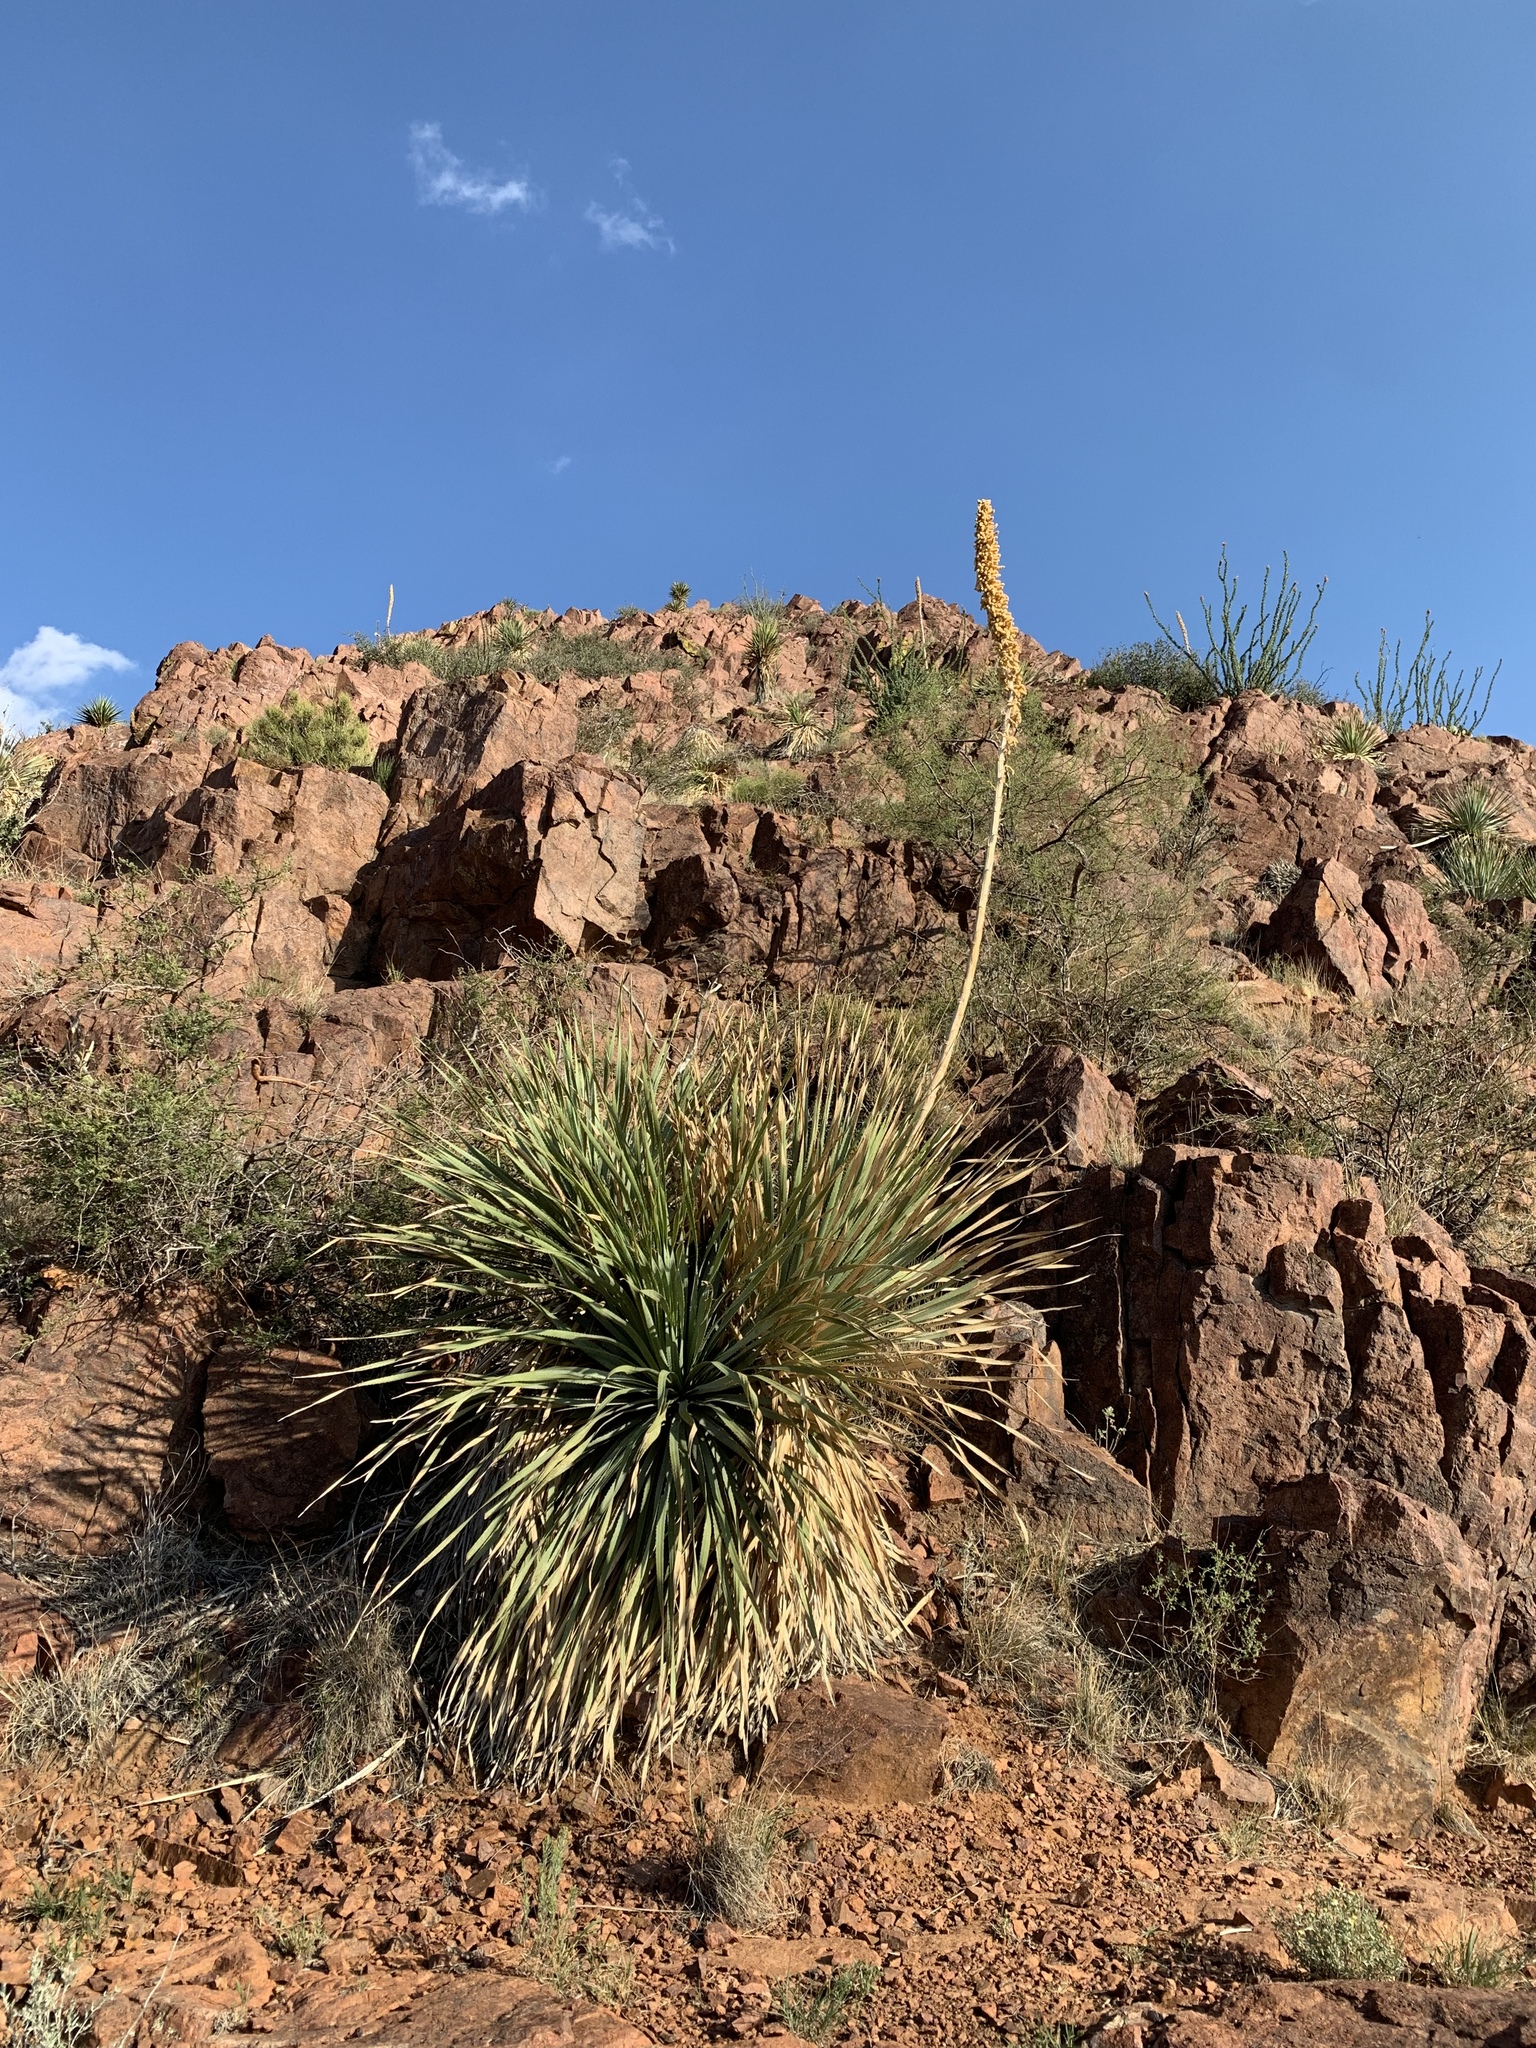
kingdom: Plantae
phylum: Tracheophyta
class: Liliopsida
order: Asparagales
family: Asparagaceae
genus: Dasylirion
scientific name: Dasylirion wheeleri
